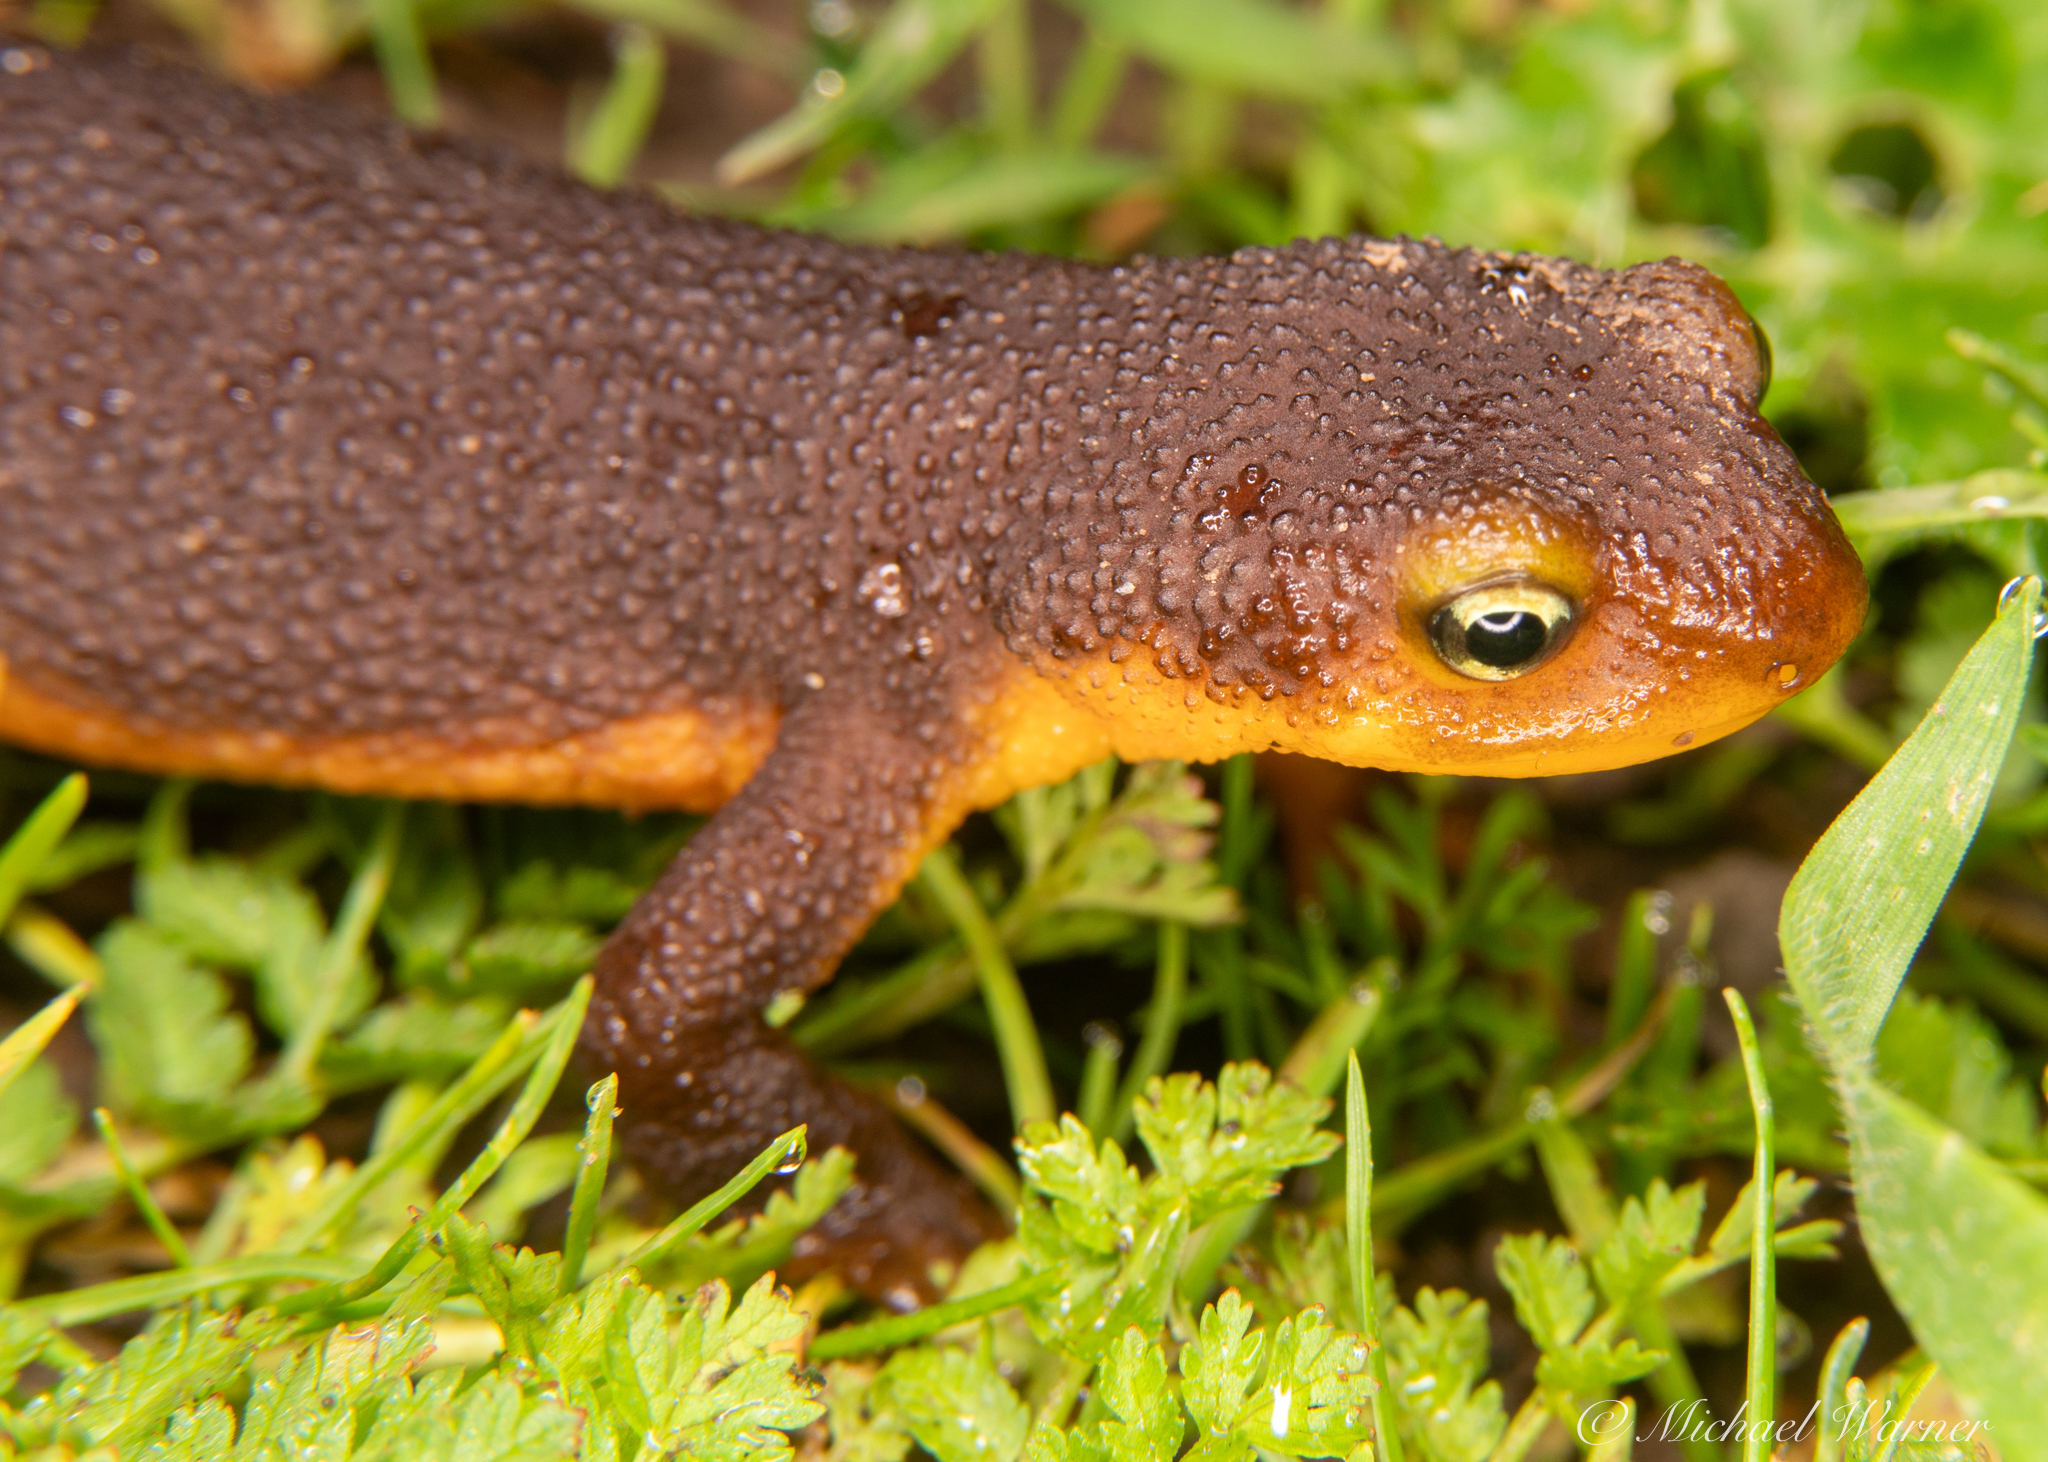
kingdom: Animalia
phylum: Chordata
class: Amphibia
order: Caudata
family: Salamandridae
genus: Taricha
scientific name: Taricha torosa
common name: California newt
